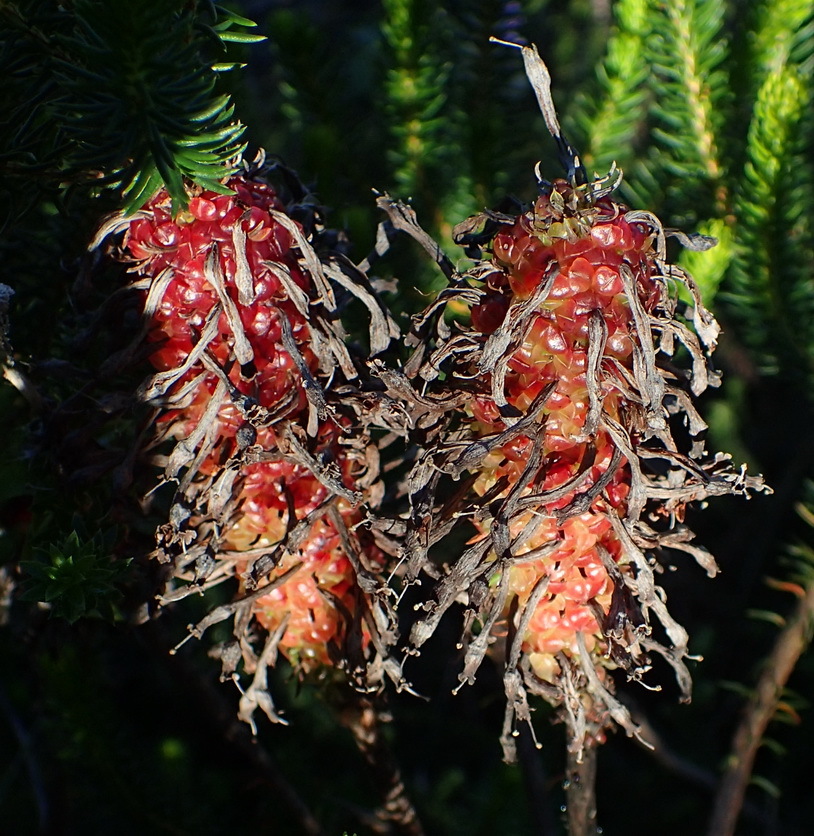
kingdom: Plantae
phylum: Tracheophyta
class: Magnoliopsida
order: Ericales
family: Ericaceae
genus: Erica
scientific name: Erica sessiliflora
